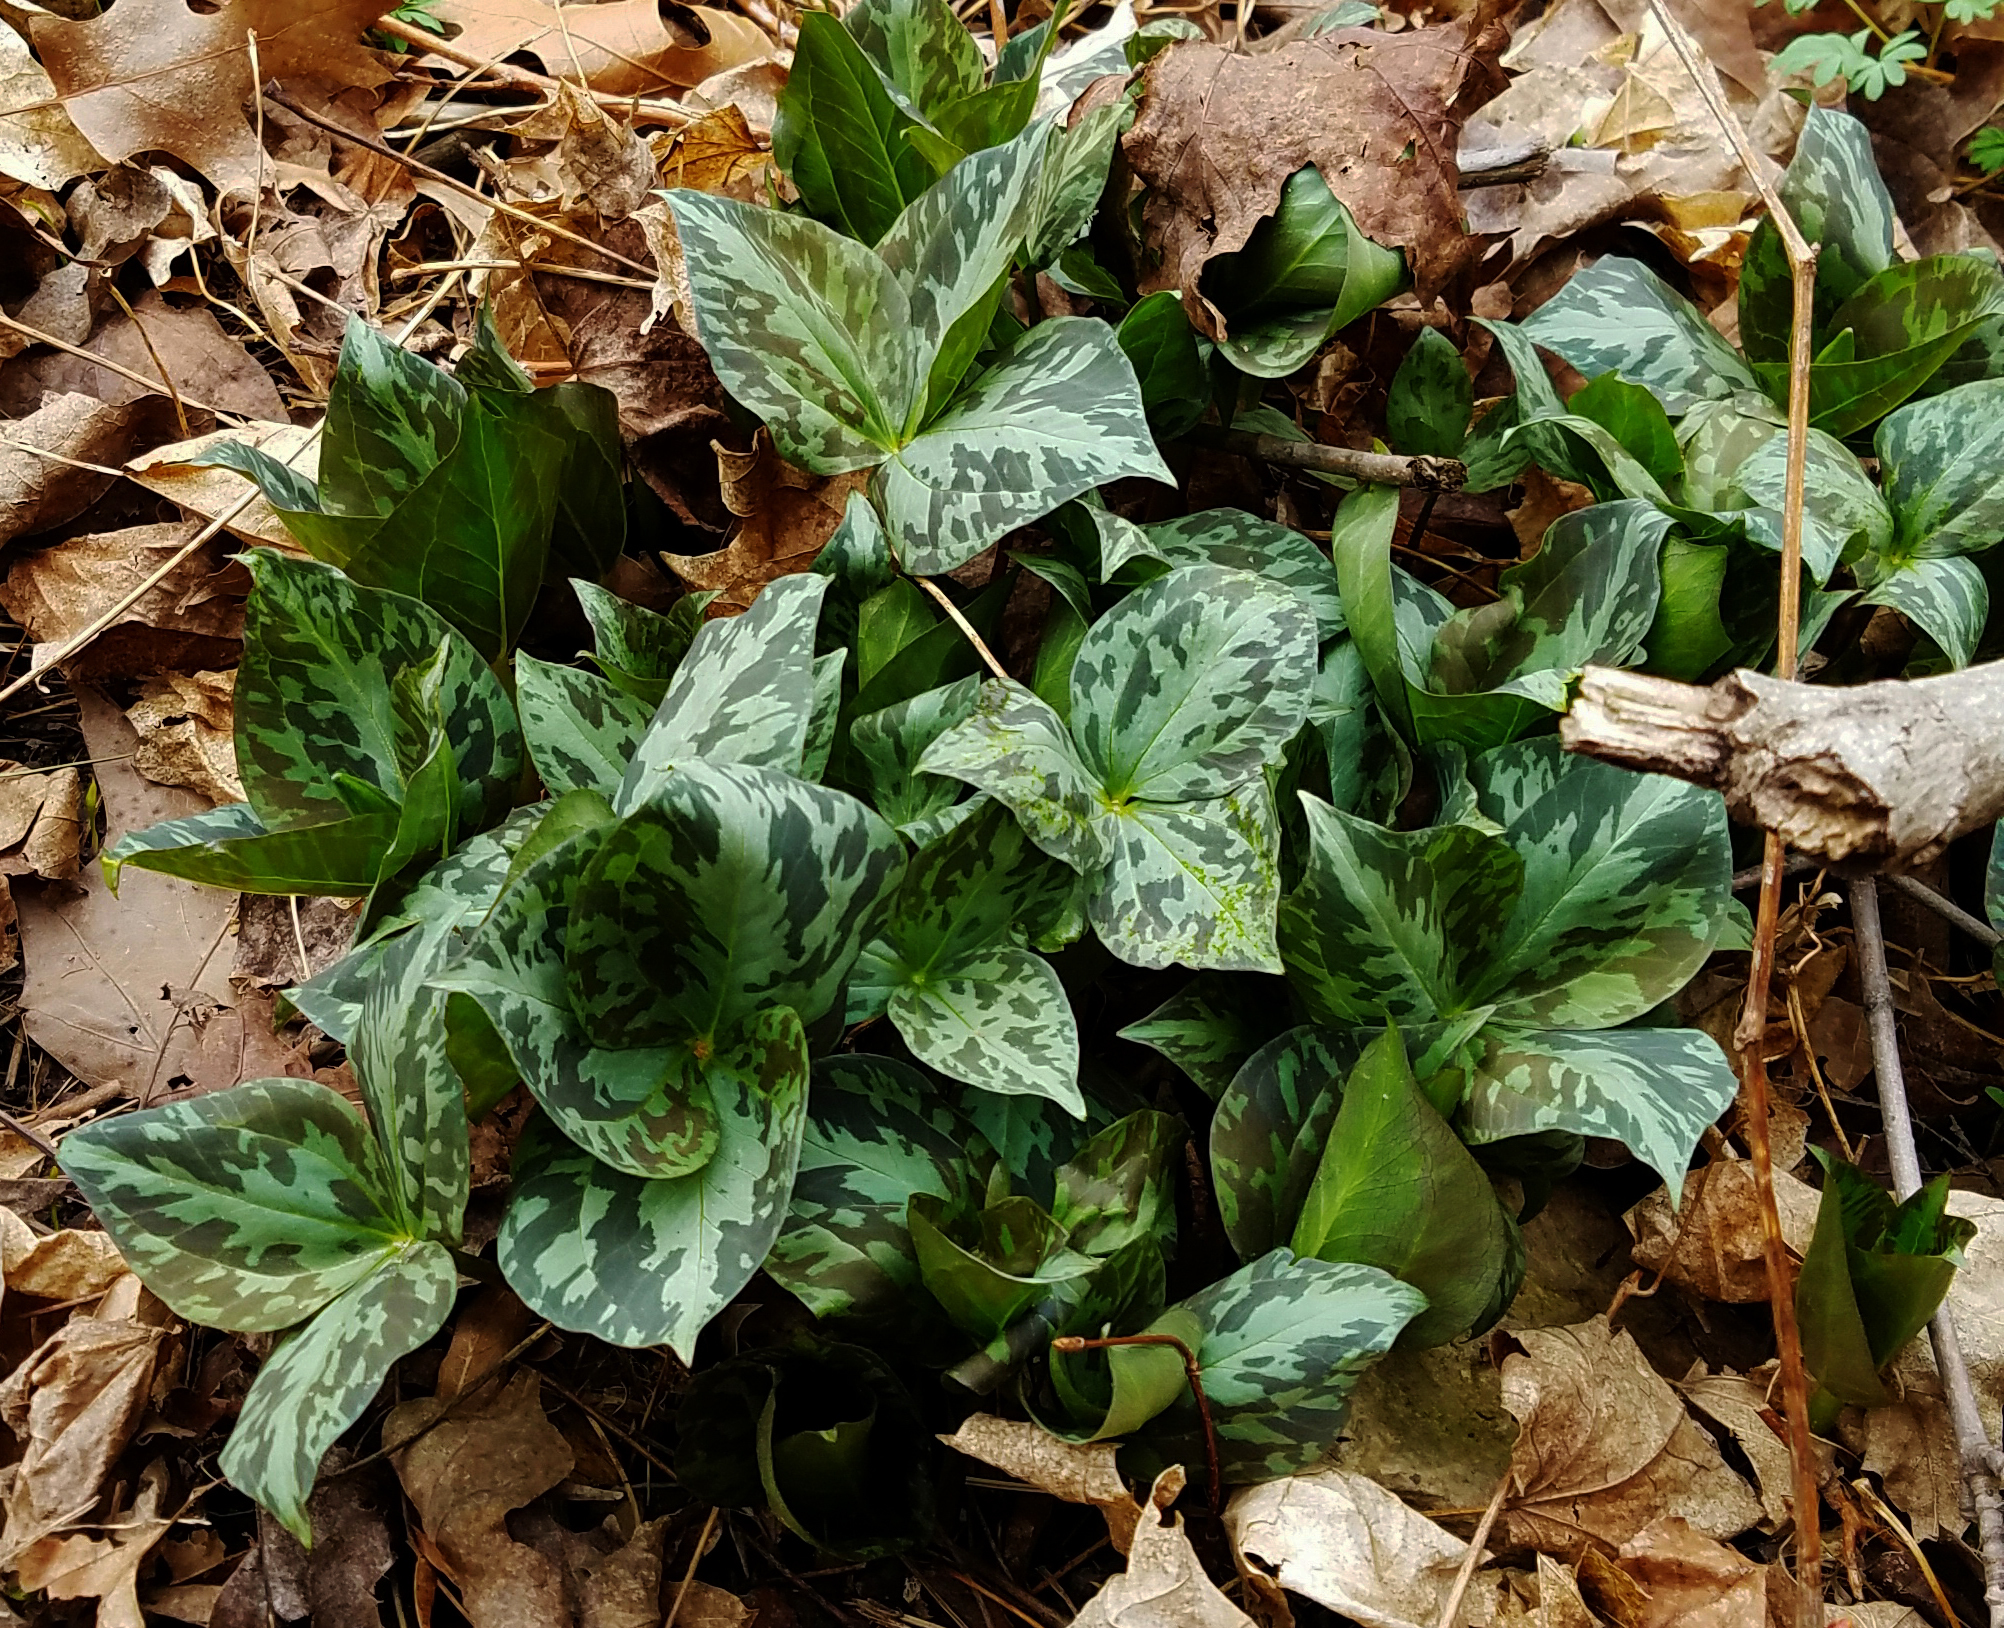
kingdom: Plantae
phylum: Tracheophyta
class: Liliopsida
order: Liliales
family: Melanthiaceae
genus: Trillium
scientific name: Trillium recurvatum
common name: Bloody butcher
